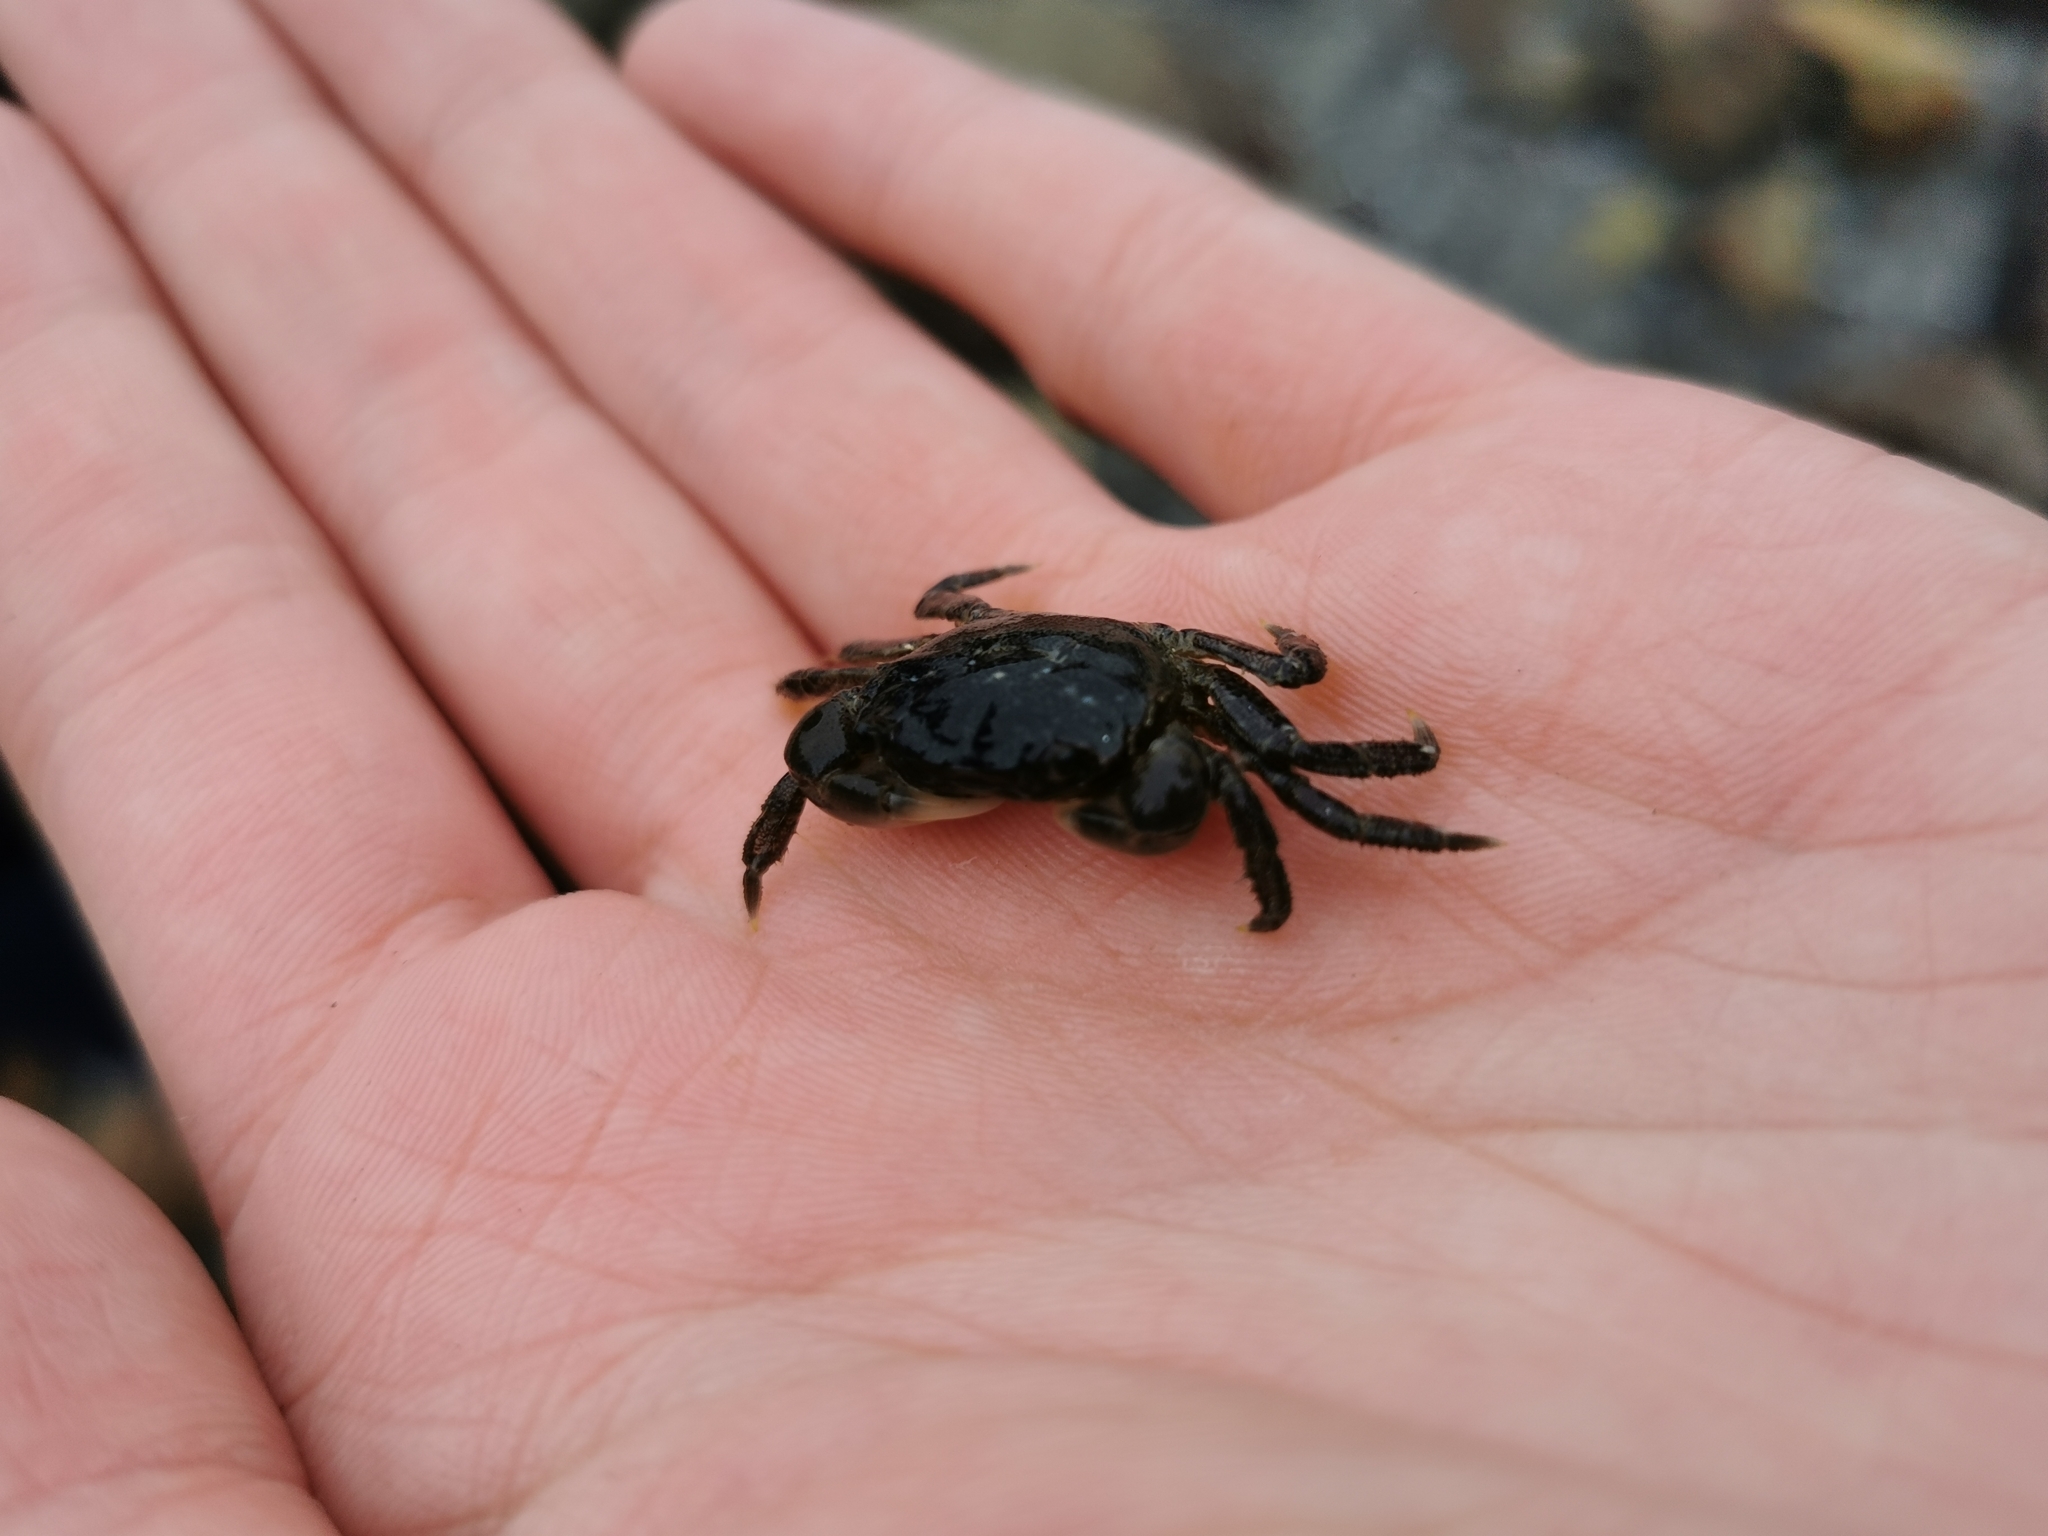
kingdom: Animalia
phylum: Arthropoda
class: Malacostraca
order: Decapoda
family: Varunidae
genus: Hemigrapsus
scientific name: Hemigrapsus oregonensis
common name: Yellow shore crab
